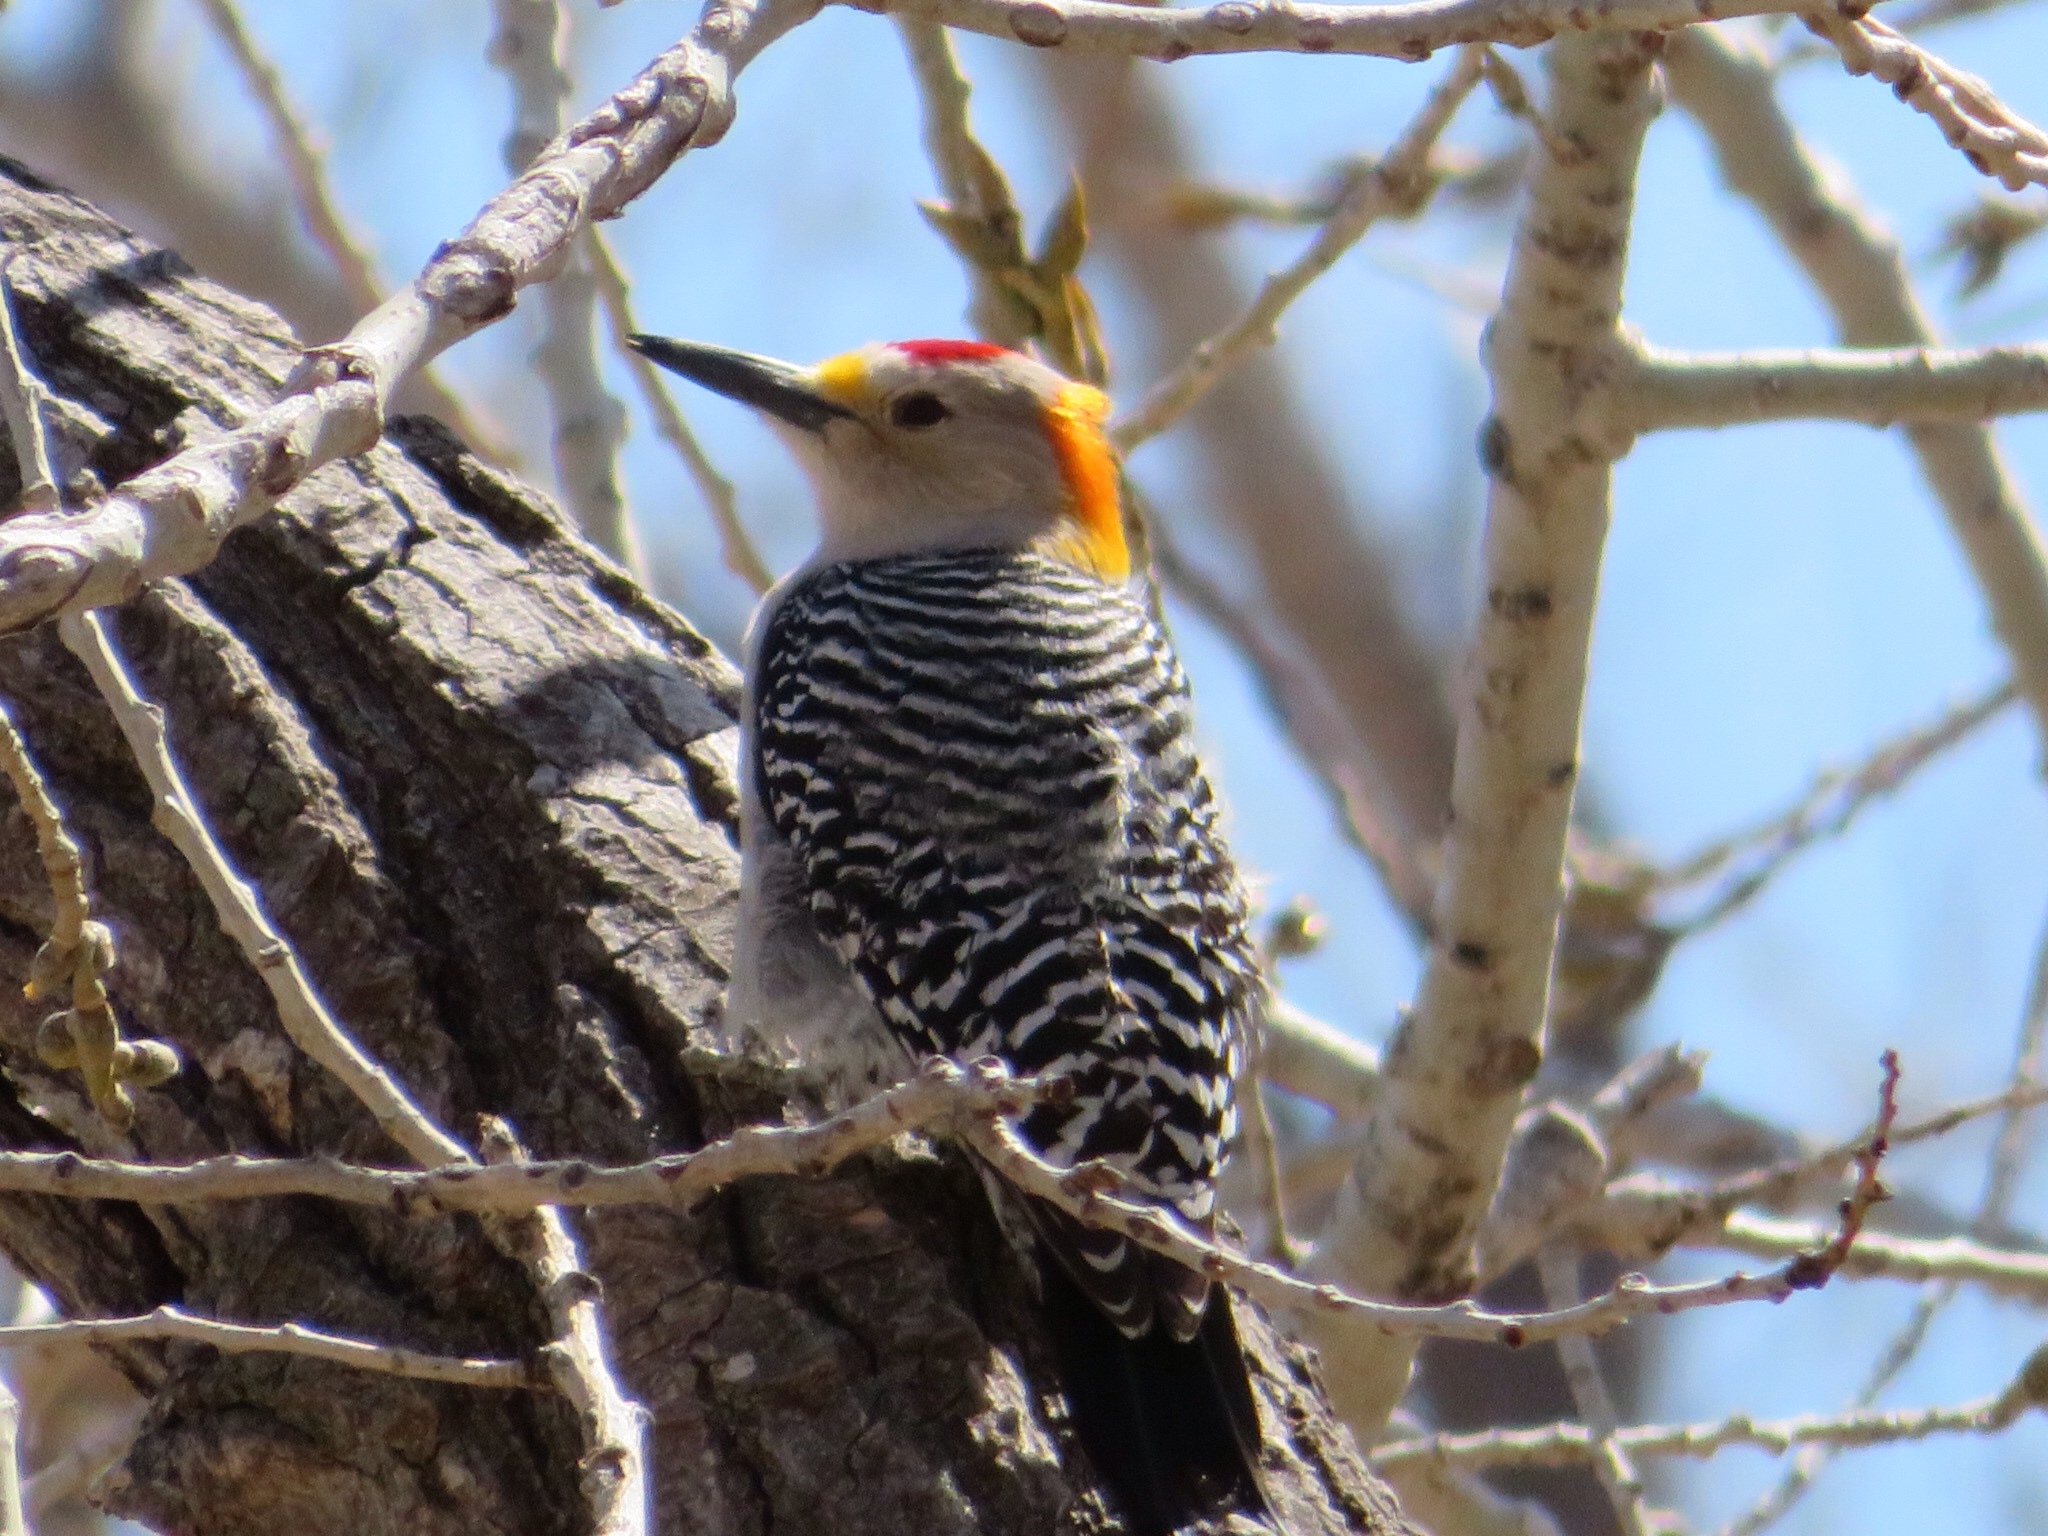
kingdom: Animalia
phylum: Chordata
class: Aves
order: Piciformes
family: Picidae
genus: Melanerpes
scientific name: Melanerpes aurifrons
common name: Golden-fronted woodpecker
